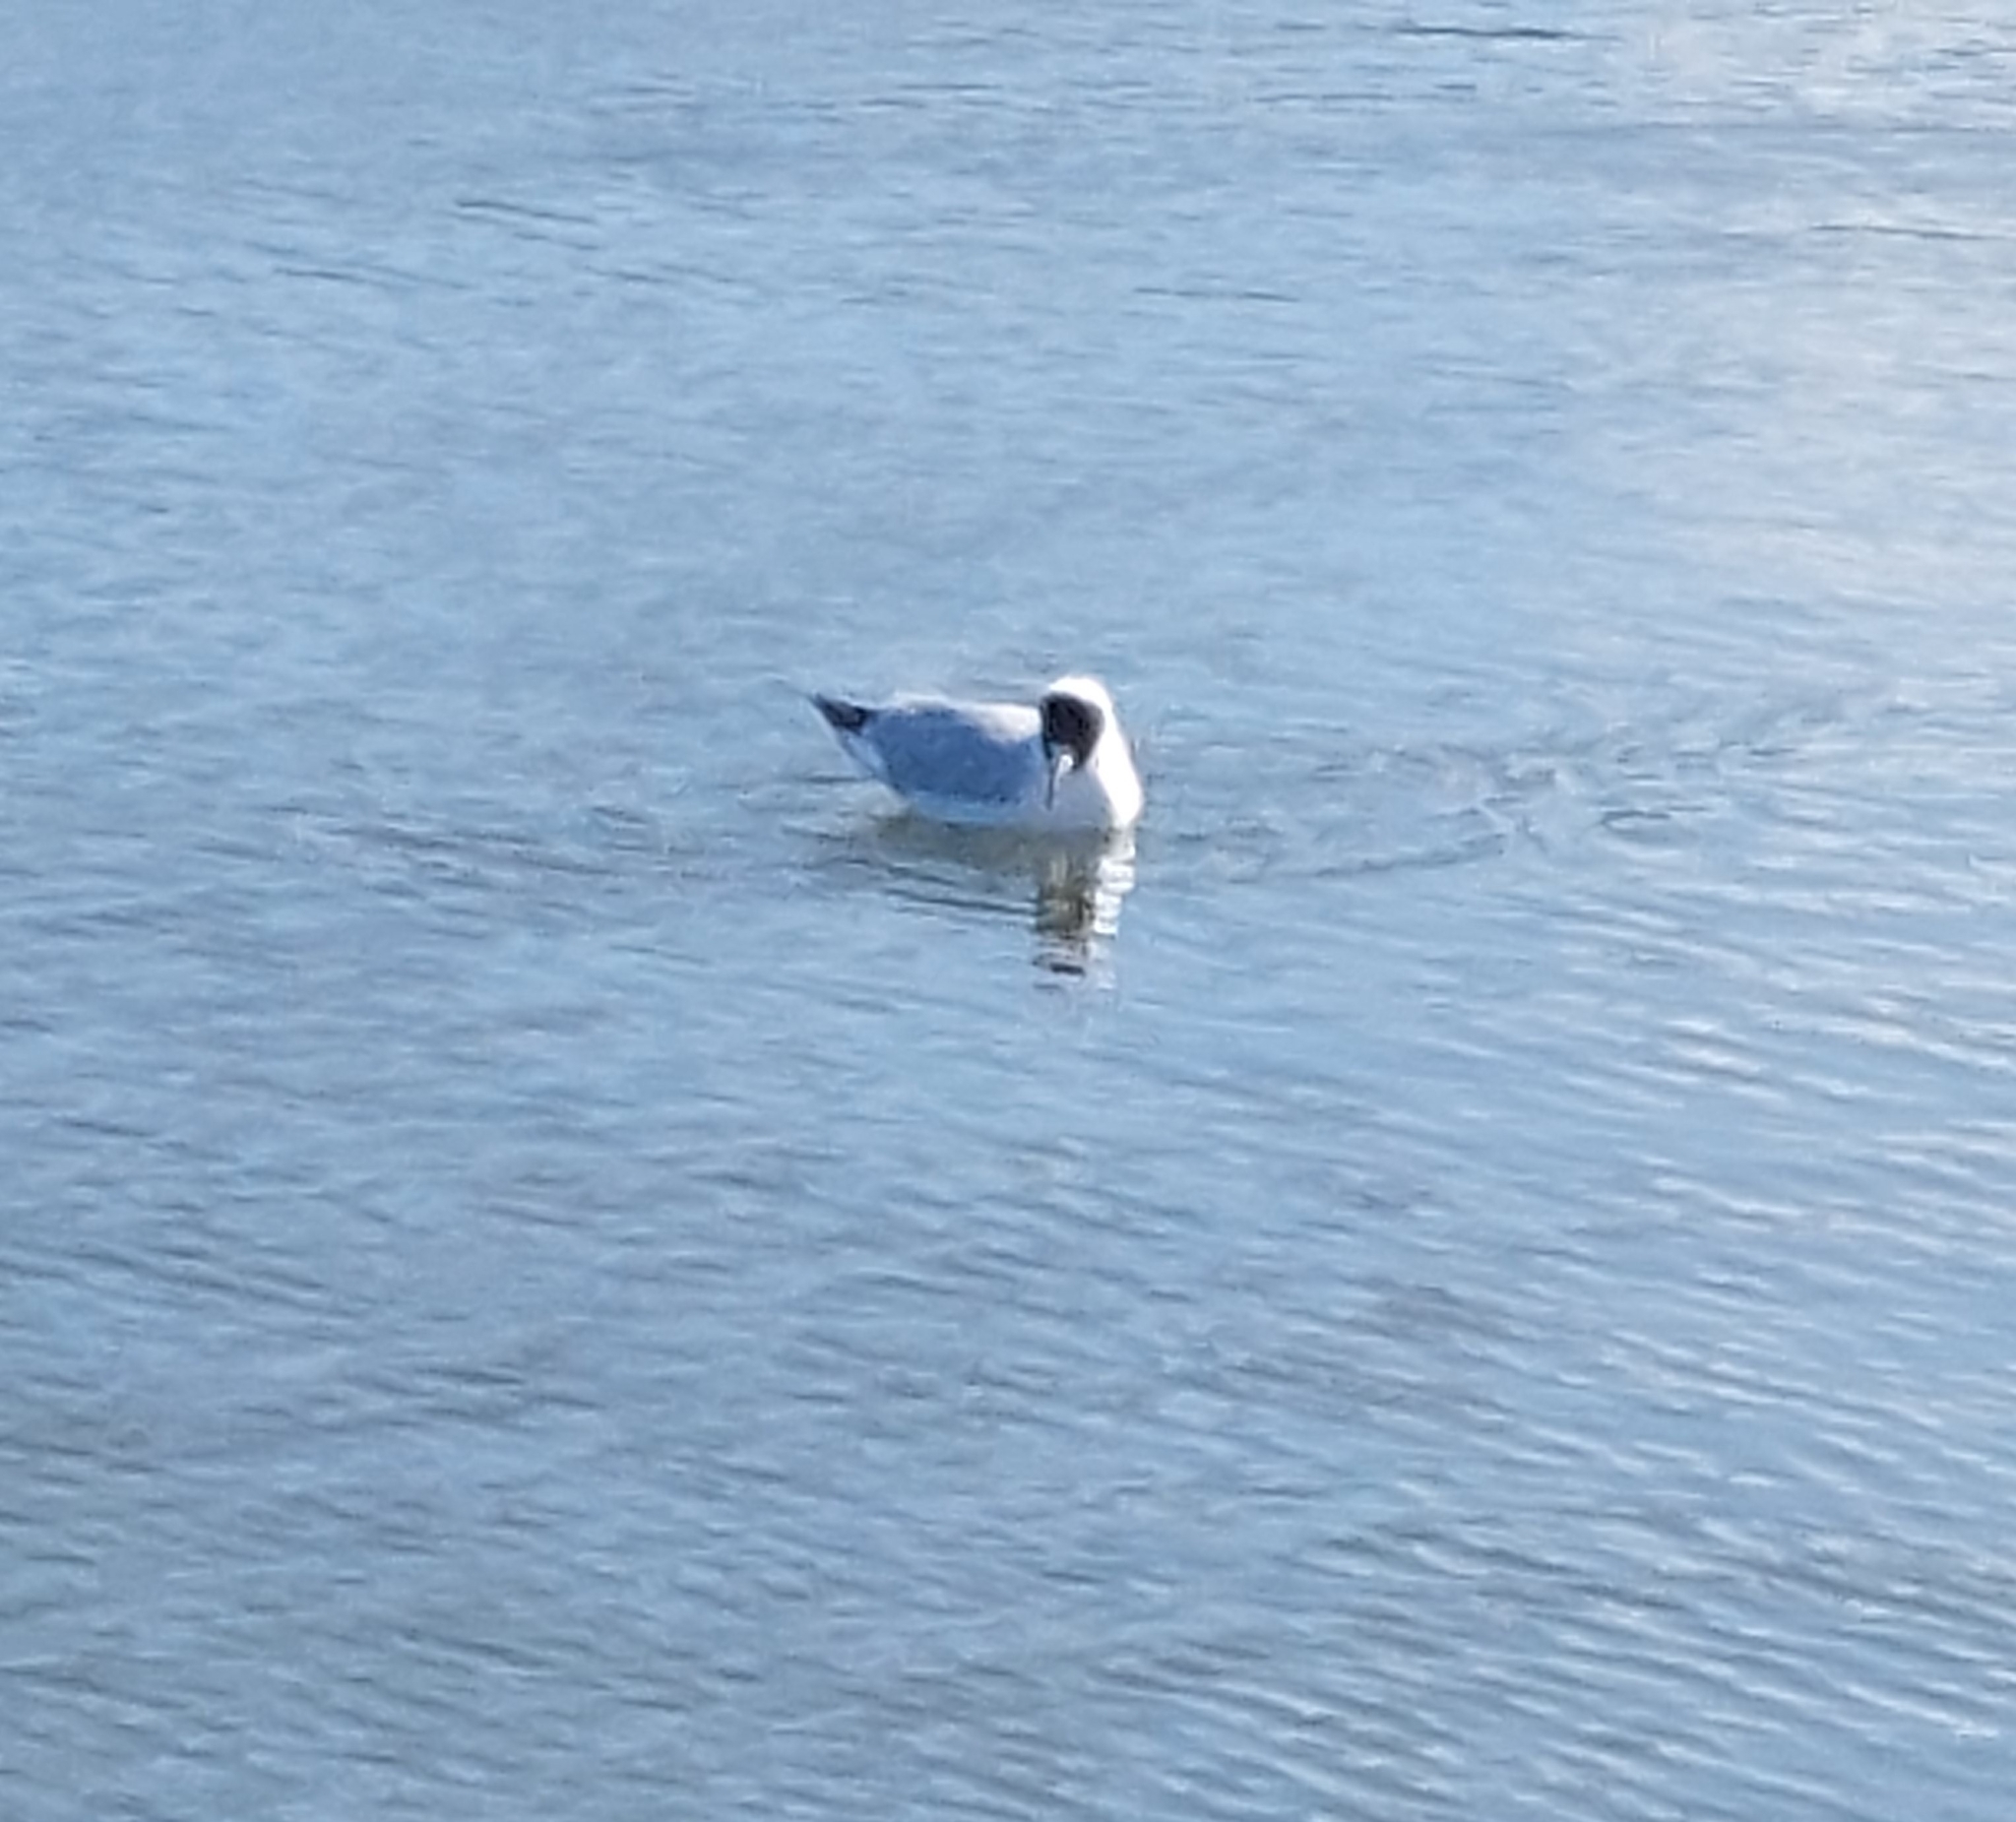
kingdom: Animalia
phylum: Chordata
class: Aves
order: Charadriiformes
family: Laridae
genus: Chroicocephalus
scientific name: Chroicocephalus ridibundus
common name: Black-headed gull
